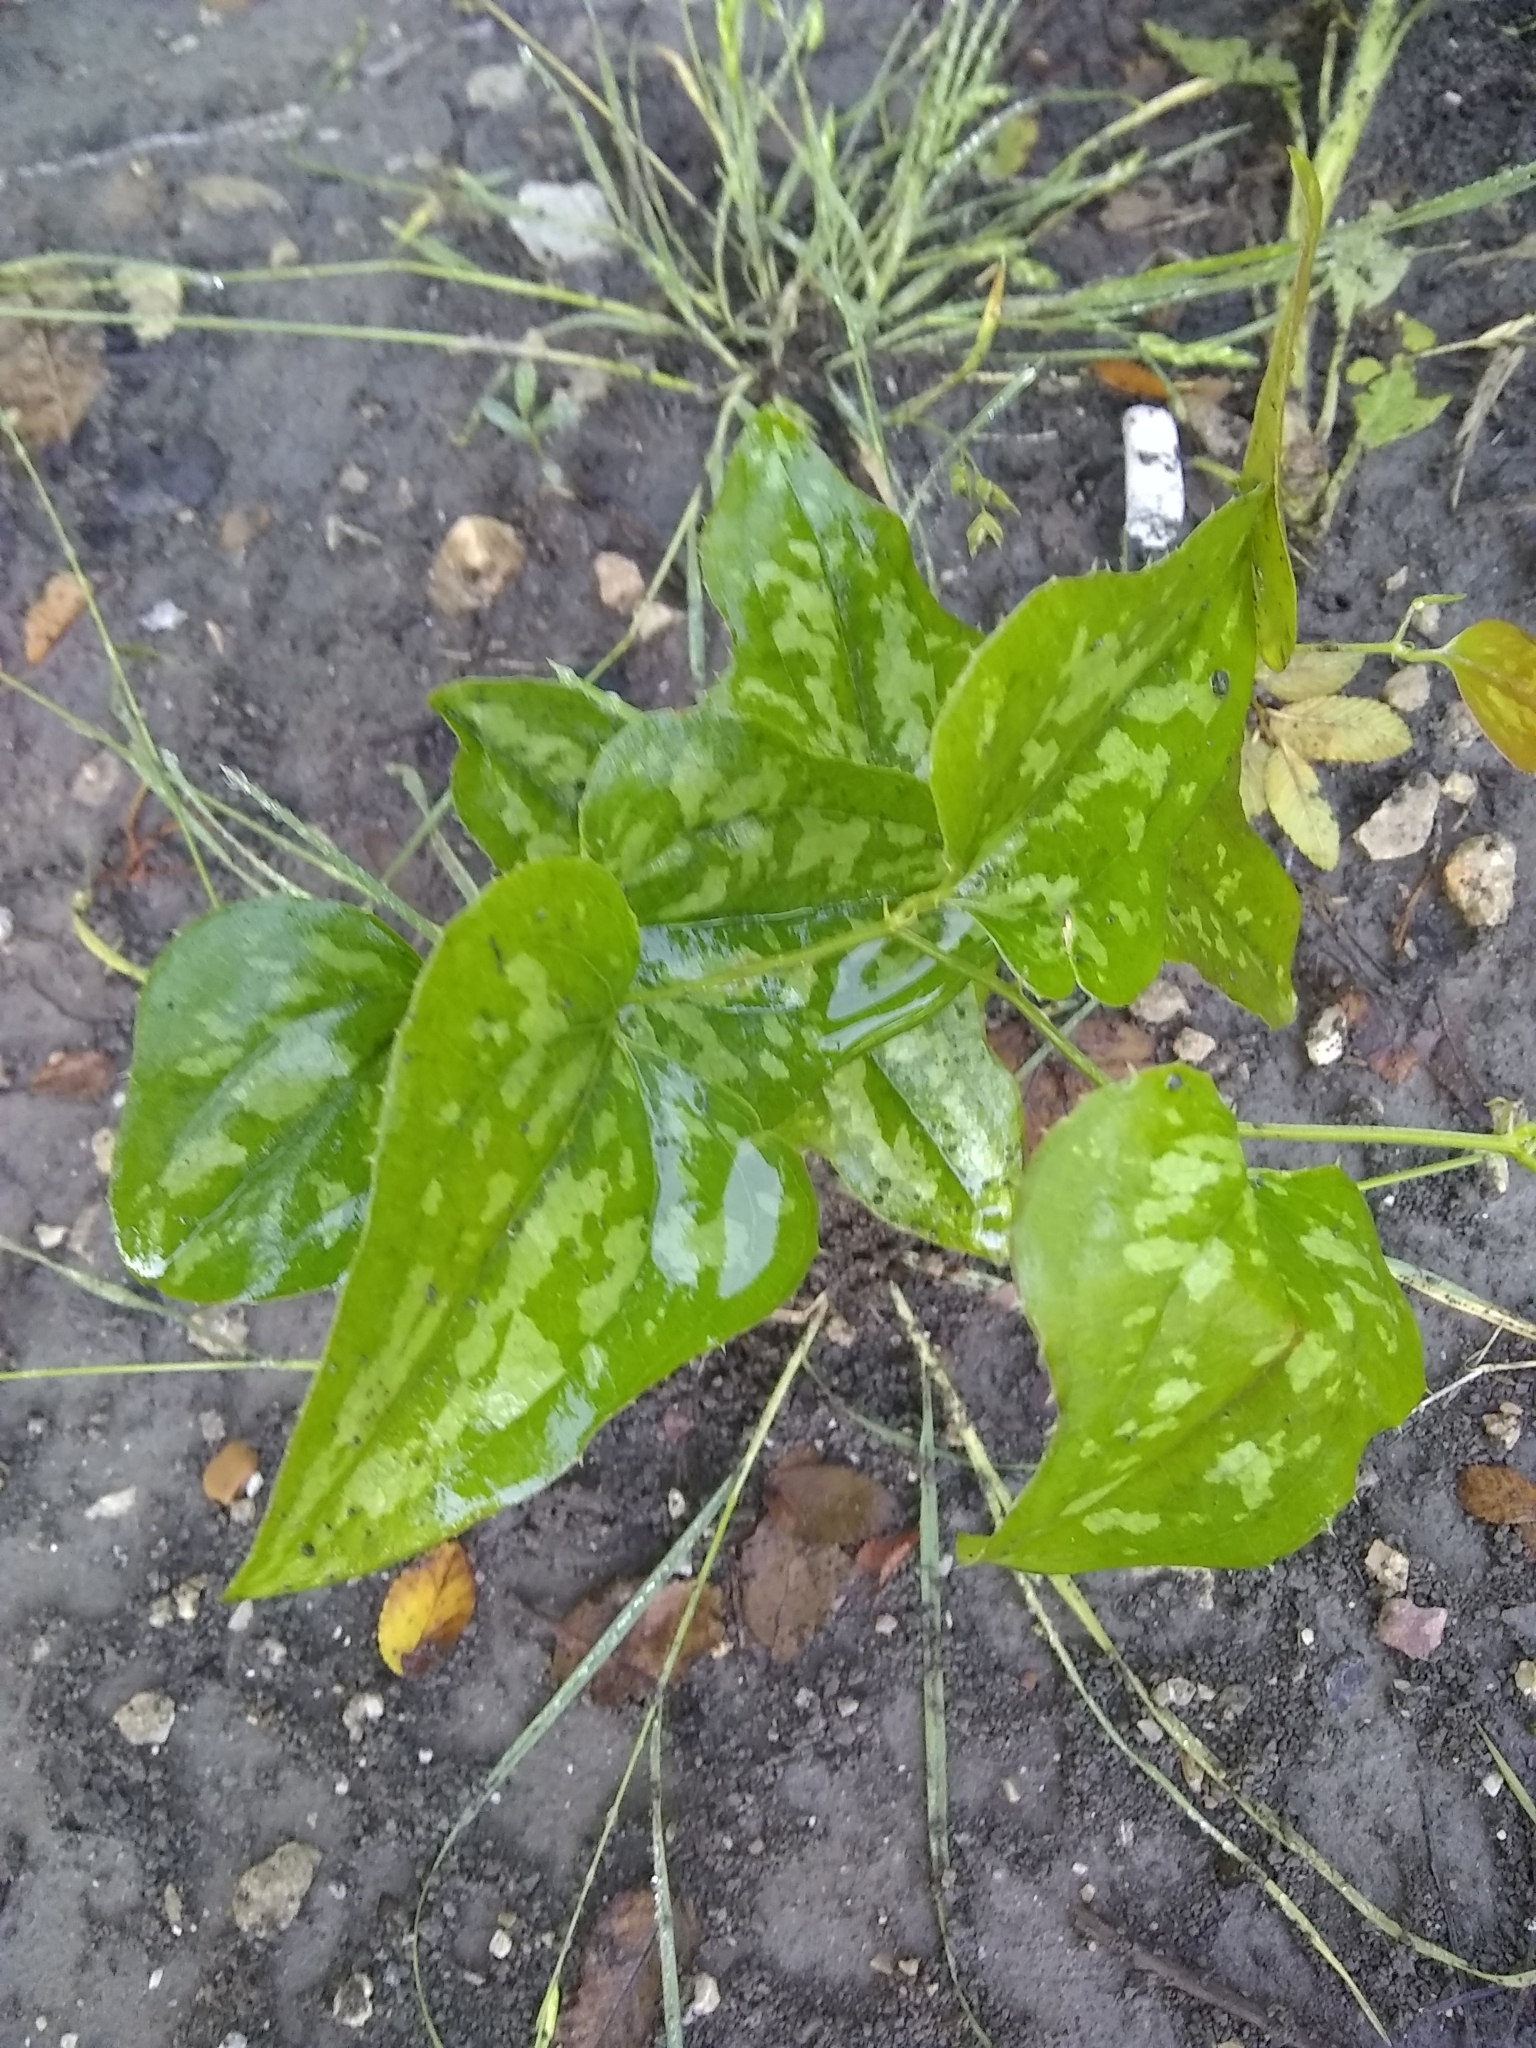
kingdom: Plantae
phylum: Tracheophyta
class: Liliopsida
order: Liliales
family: Smilacaceae
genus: Smilax
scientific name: Smilax bona-nox
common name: Catbrier
